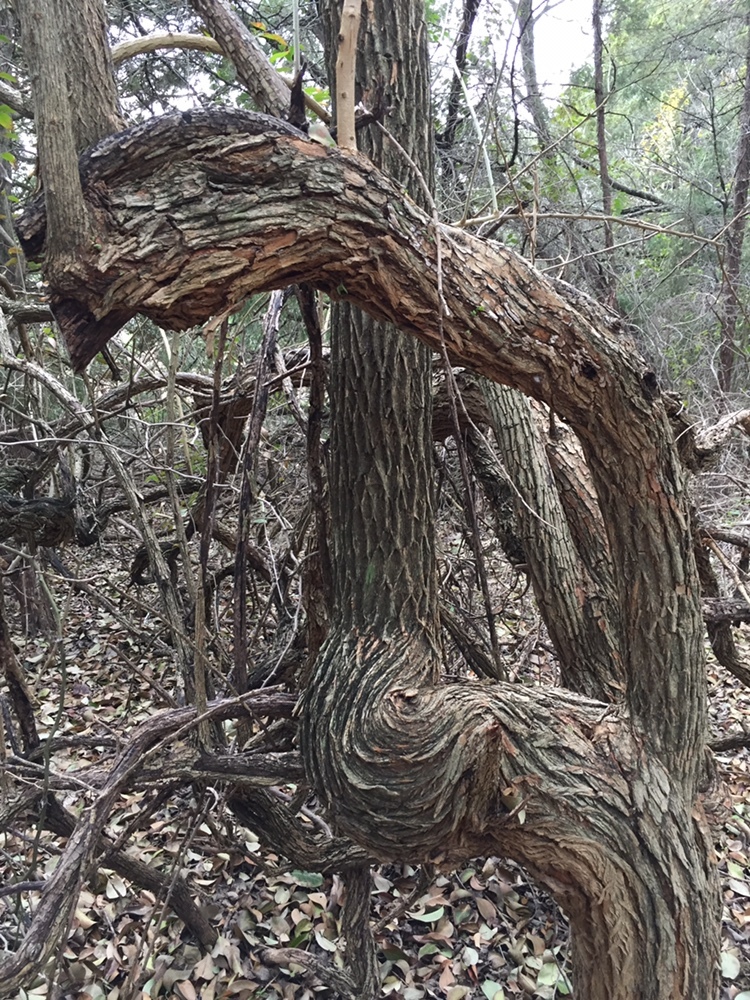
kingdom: Plantae
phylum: Tracheophyta
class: Magnoliopsida
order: Rosales
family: Moraceae
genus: Maclura
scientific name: Maclura pomifera
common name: Osage-orange
